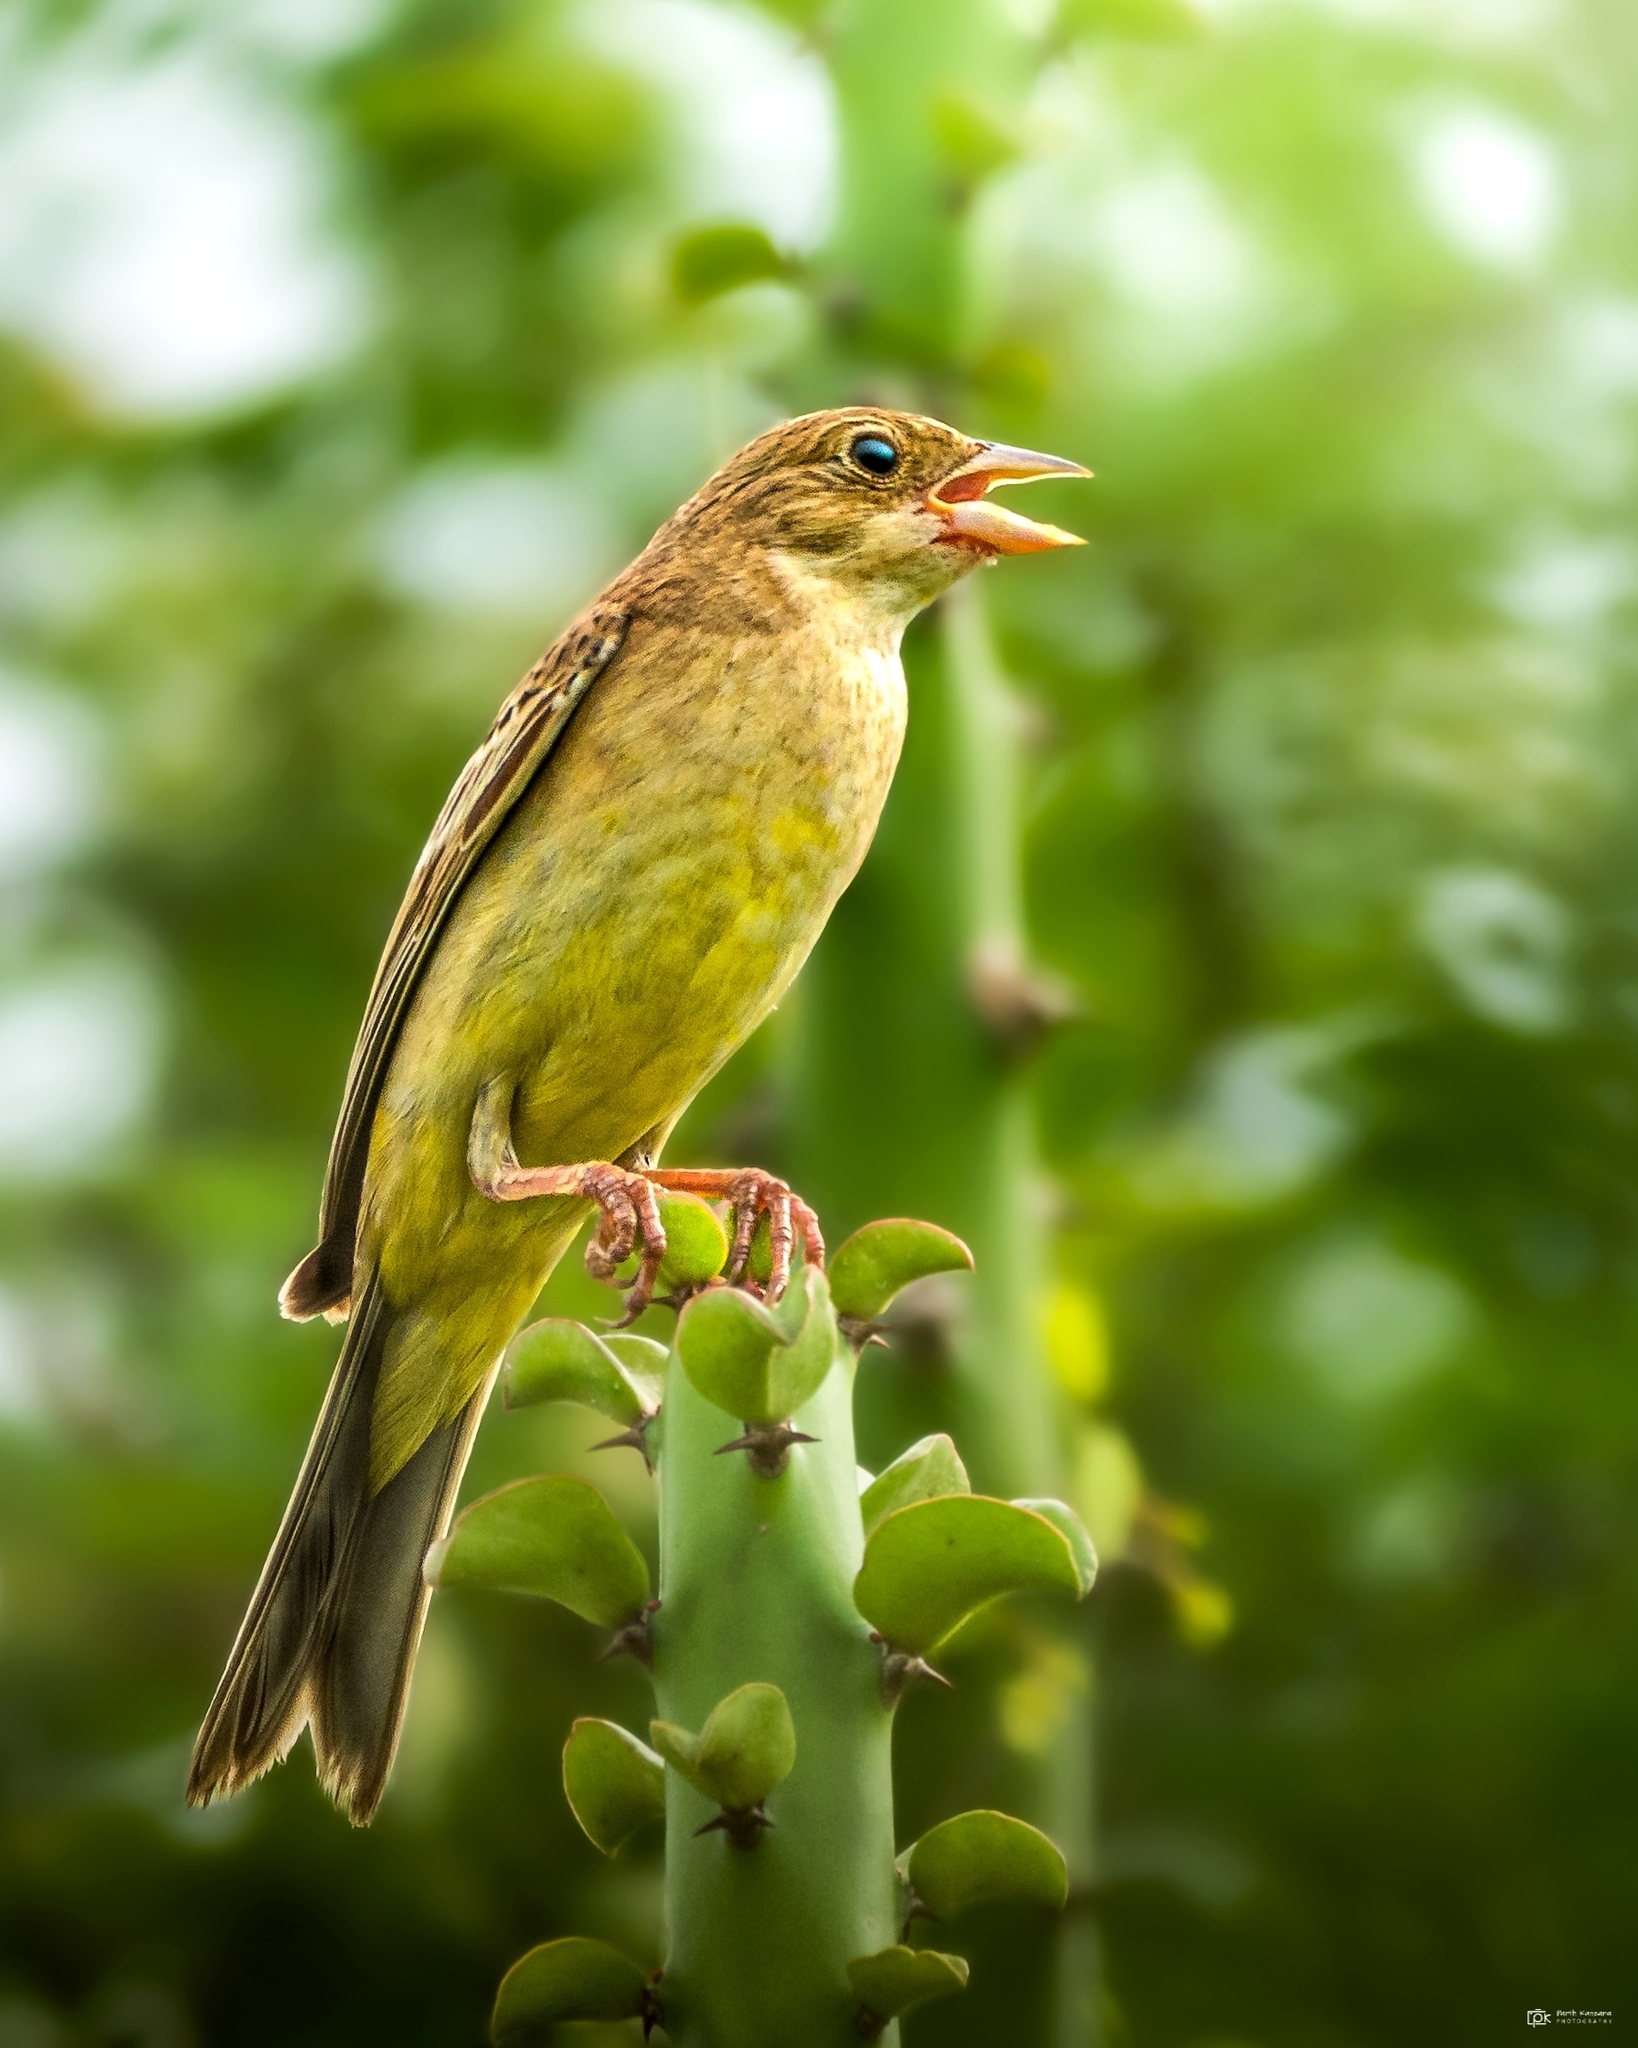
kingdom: Animalia
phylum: Chordata
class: Aves
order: Passeriformes
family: Emberizidae
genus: Emberiza
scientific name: Emberiza melanocephala
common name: Black-headed bunting
